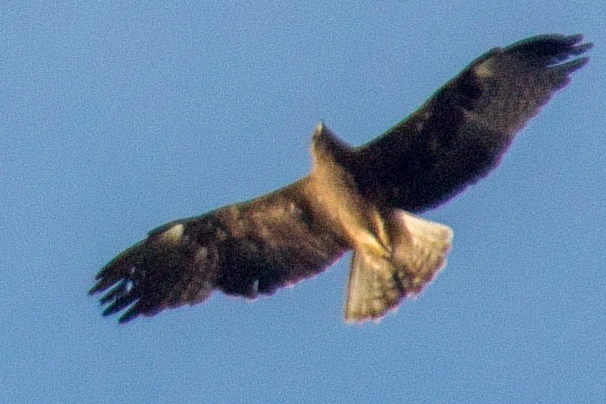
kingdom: Animalia
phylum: Chordata
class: Aves
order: Accipitriformes
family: Accipitridae
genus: Hieraaetus
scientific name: Hieraaetus pennatus
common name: Booted eagle
